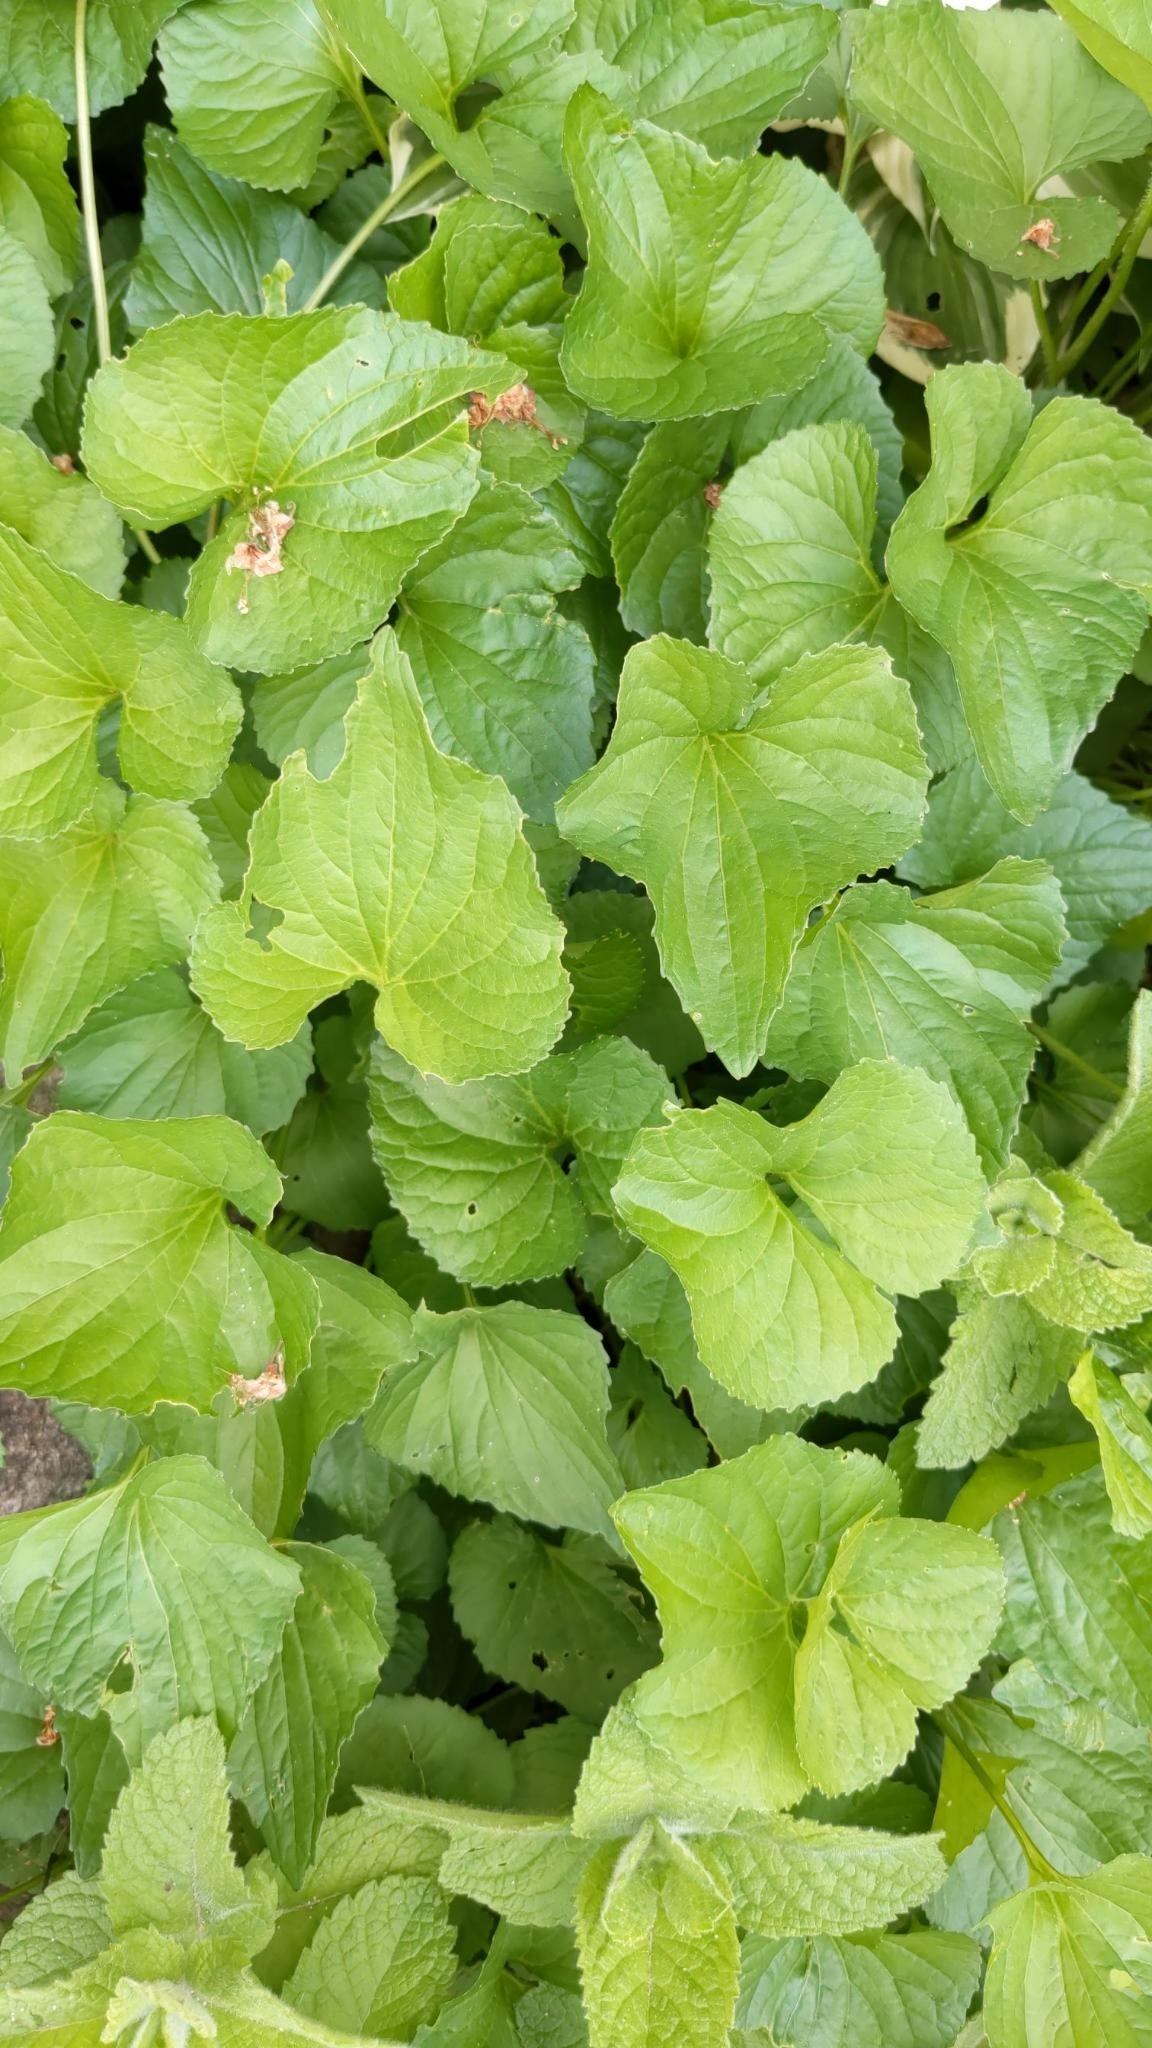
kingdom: Plantae
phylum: Tracheophyta
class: Magnoliopsida
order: Malpighiales
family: Violaceae
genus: Viola
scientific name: Viola sororia
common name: Dooryard violet
